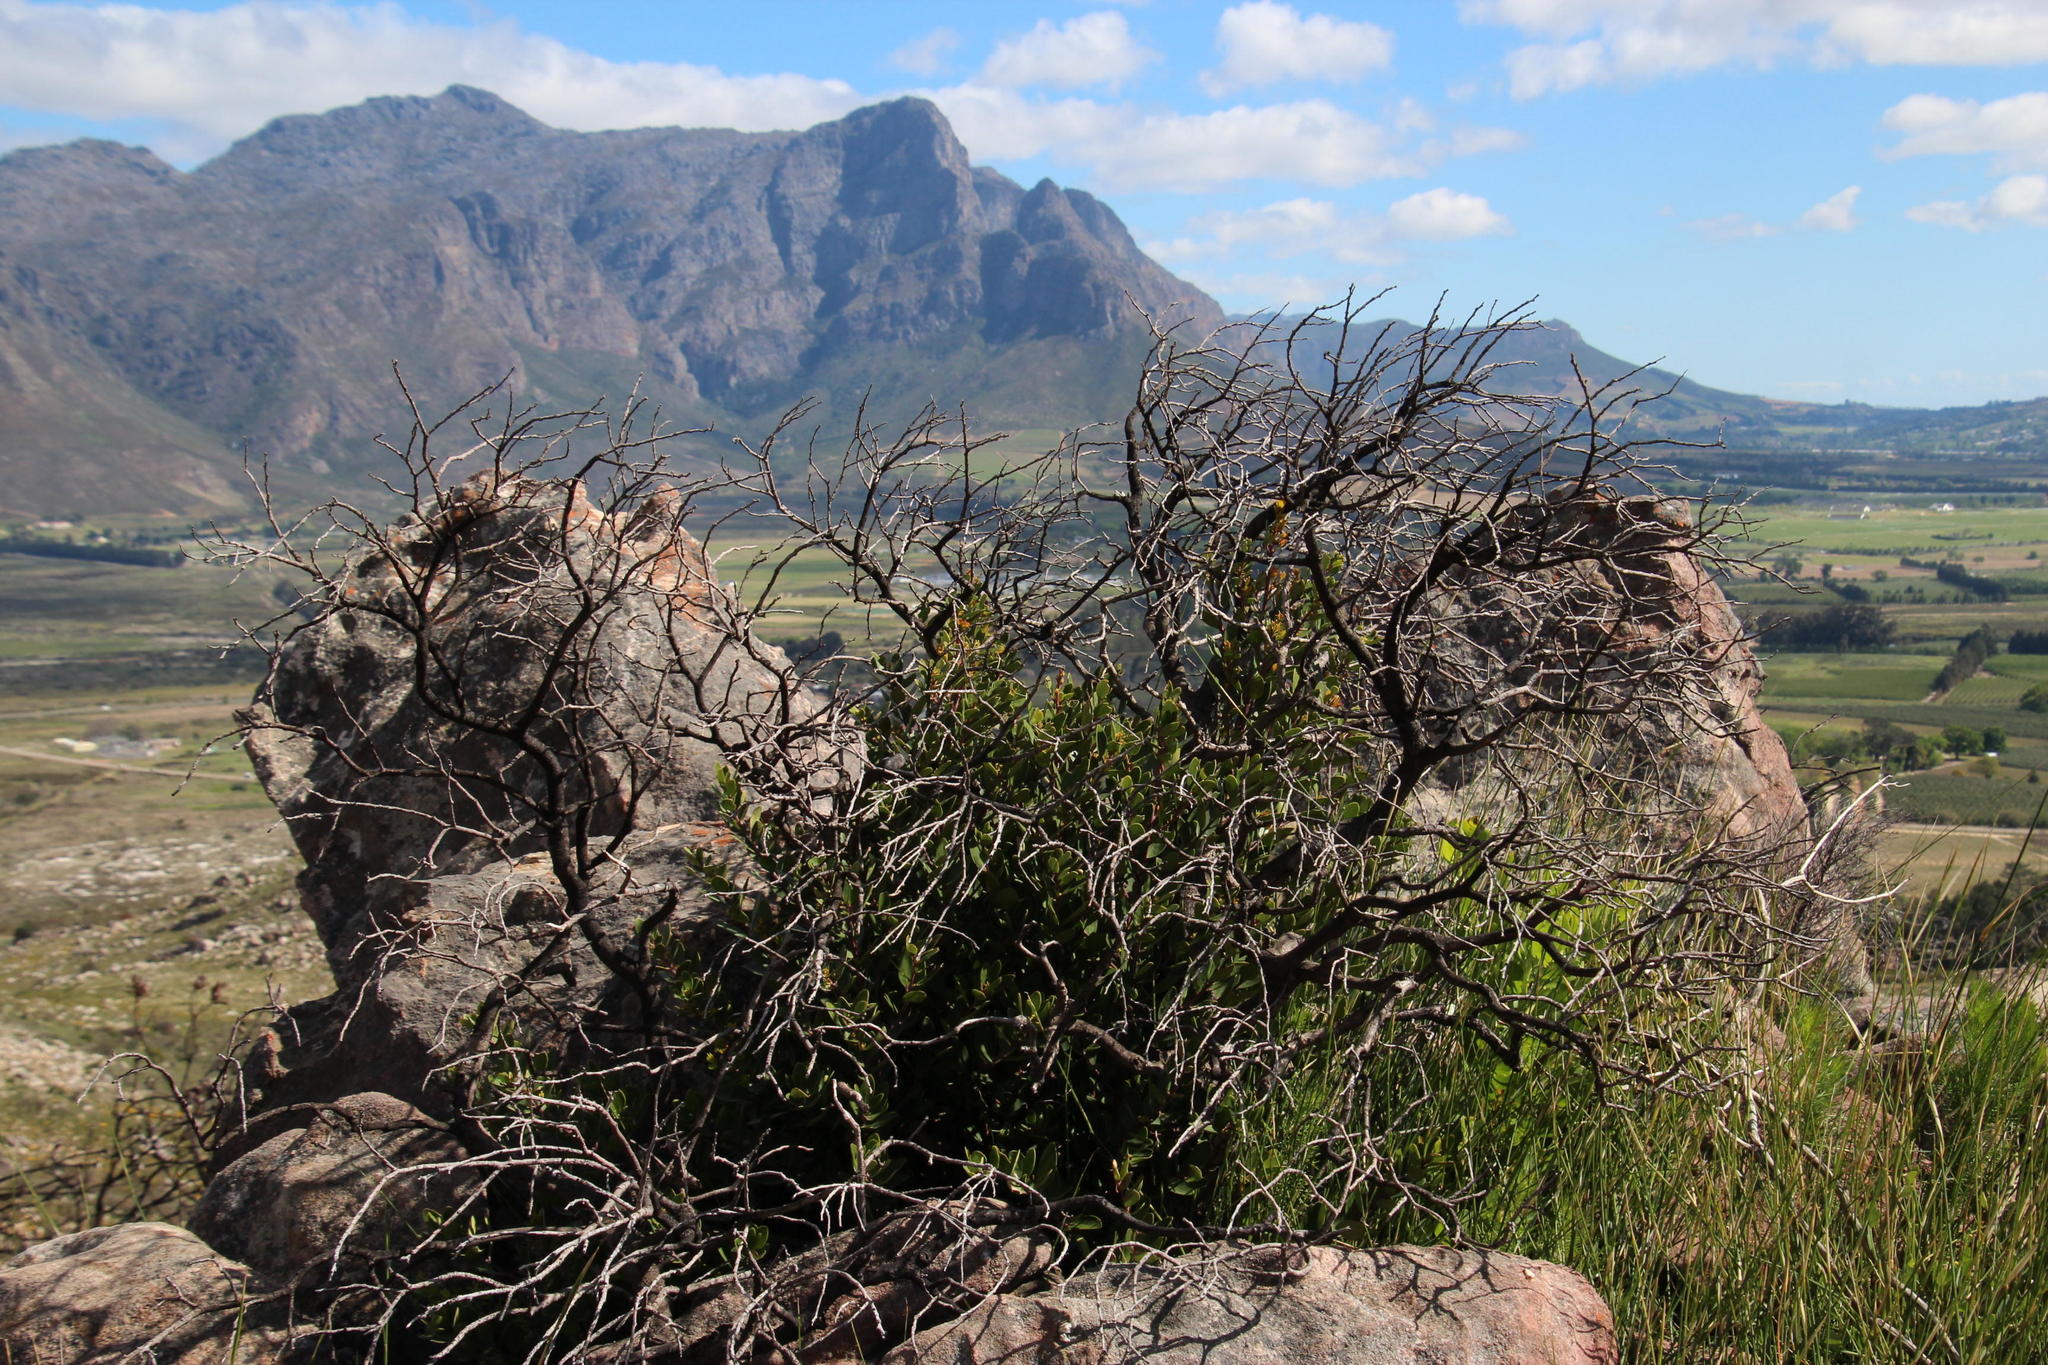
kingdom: Plantae
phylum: Tracheophyta
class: Magnoliopsida
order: Celastrales
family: Celastraceae
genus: Gymnosporia
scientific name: Gymnosporia laurina
